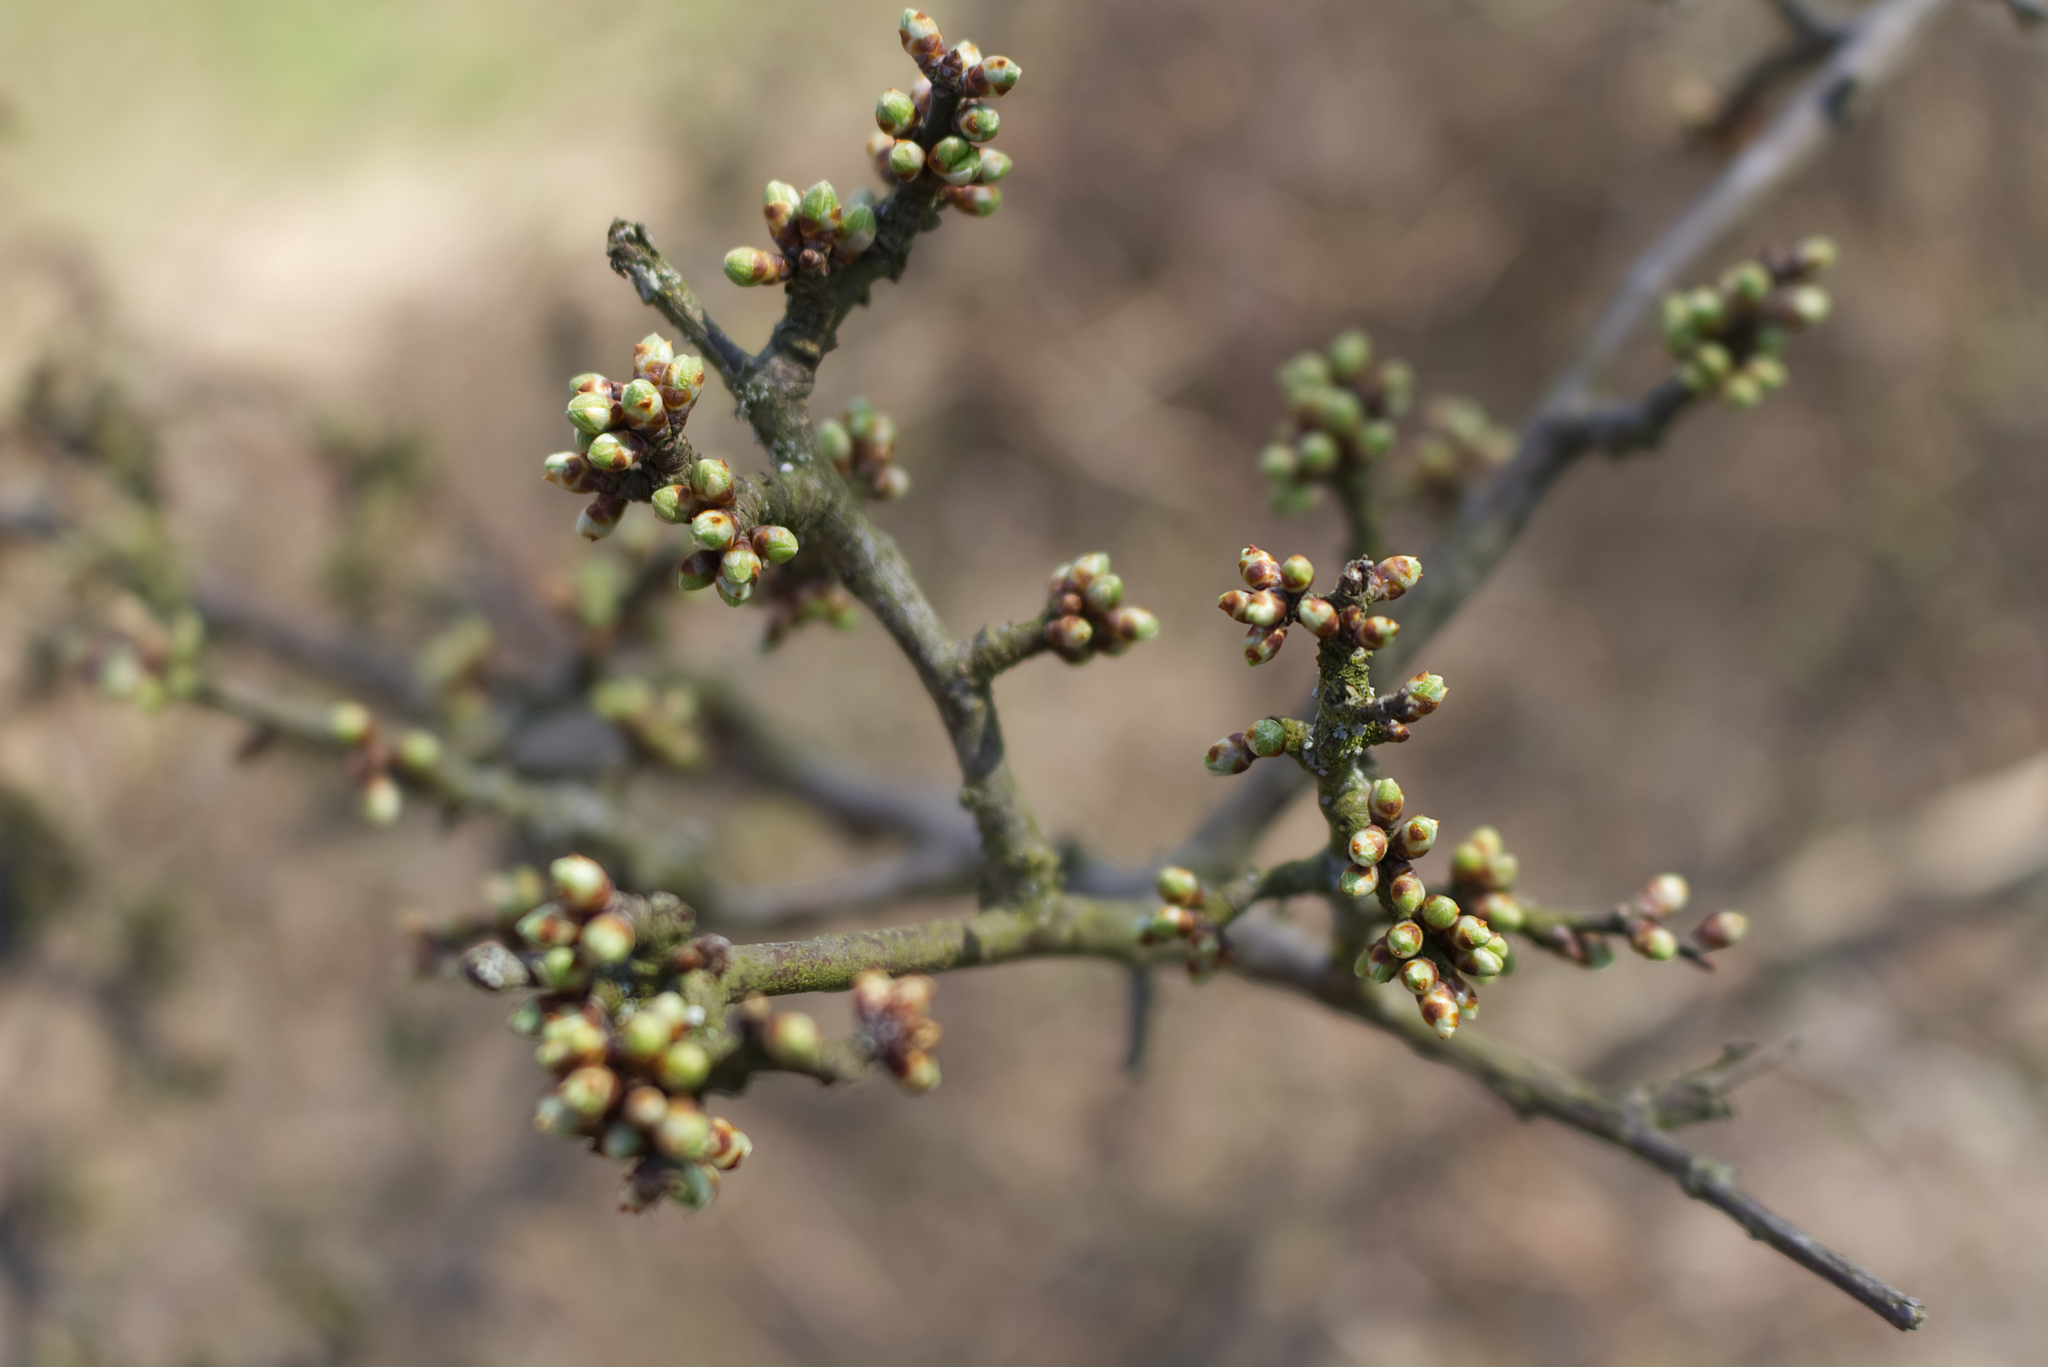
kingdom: Plantae
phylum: Tracheophyta
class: Magnoliopsida
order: Rosales
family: Rosaceae
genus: Prunus
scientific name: Prunus spinosa
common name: Blackthorn
